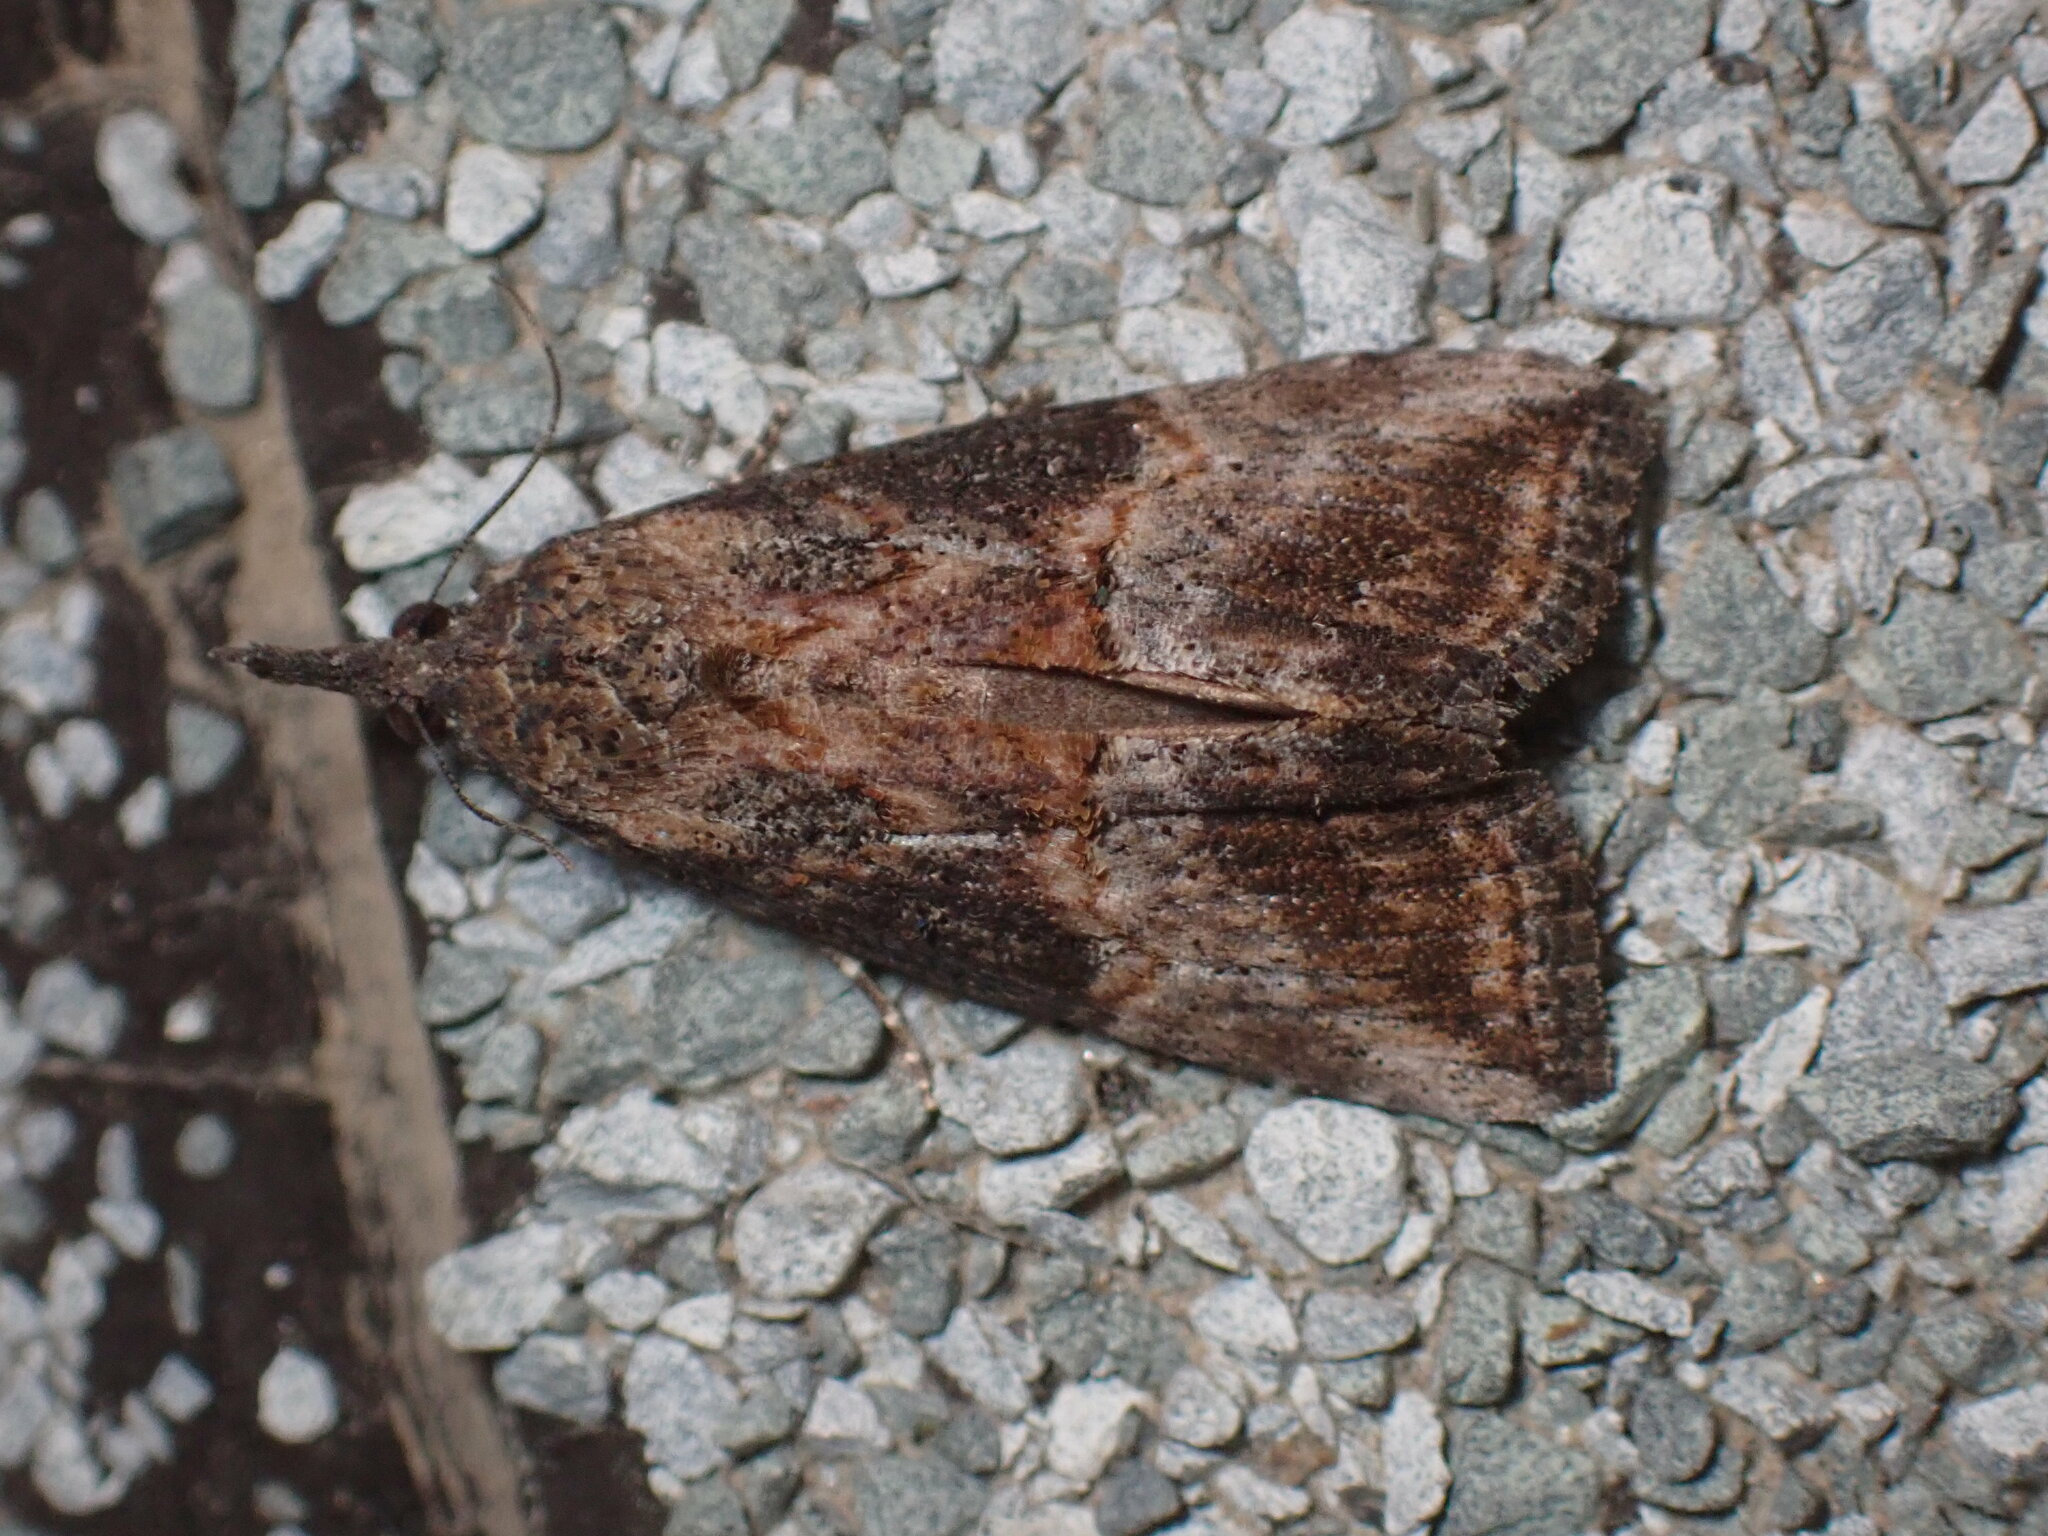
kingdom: Animalia
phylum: Arthropoda
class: Insecta
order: Lepidoptera
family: Erebidae
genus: Hypena
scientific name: Hypena scabra
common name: Green cloverworm
